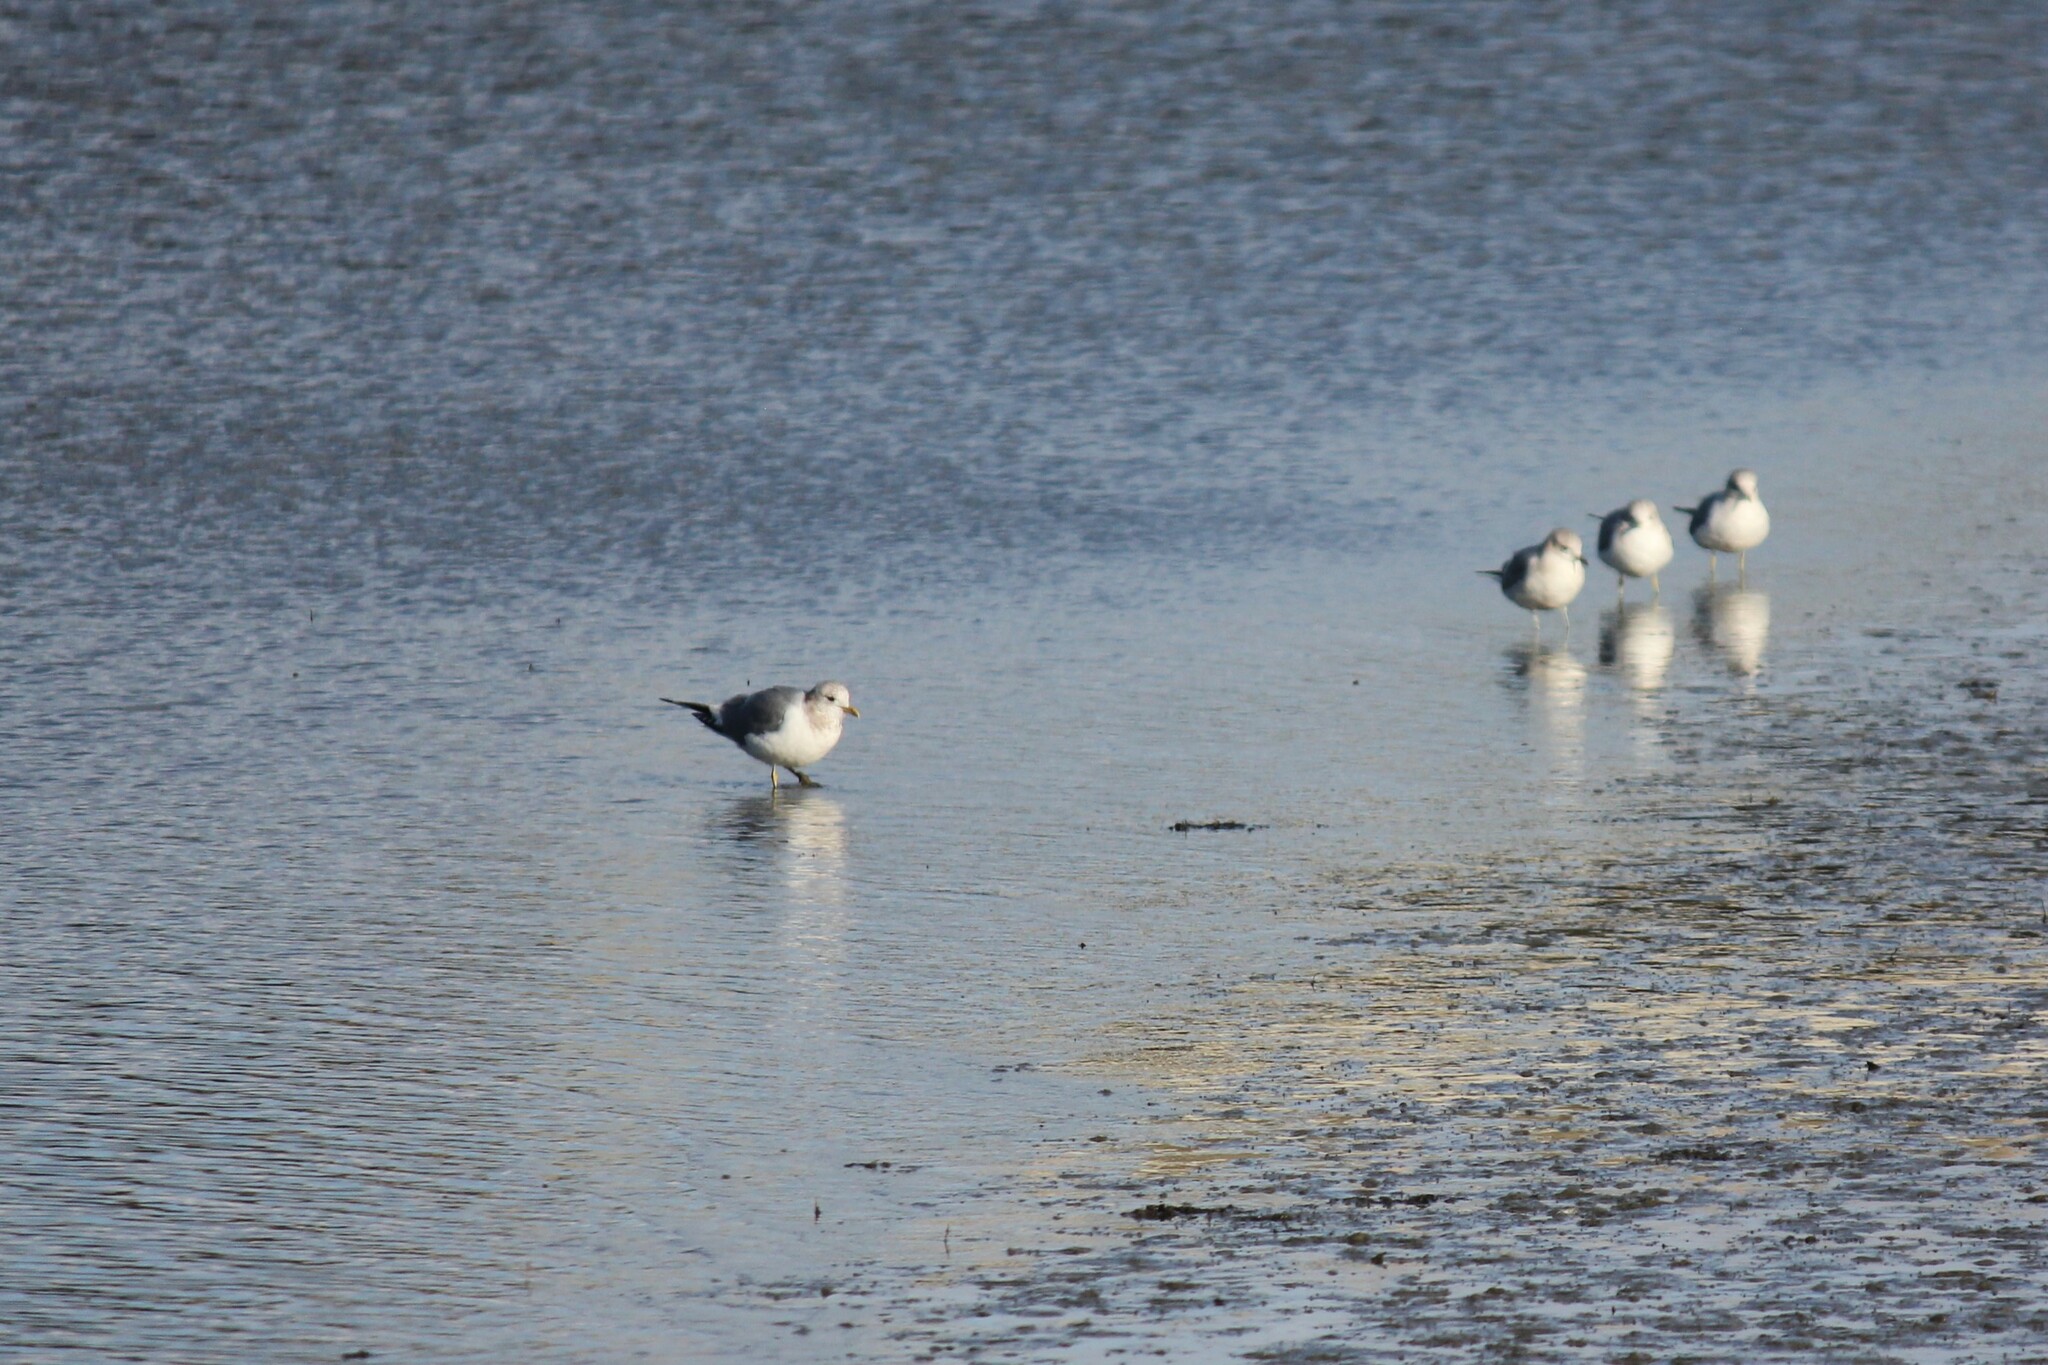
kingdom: Animalia
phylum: Chordata
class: Aves
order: Charadriiformes
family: Laridae
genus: Larus
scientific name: Larus brachyrhynchus
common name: Short-billed gull
